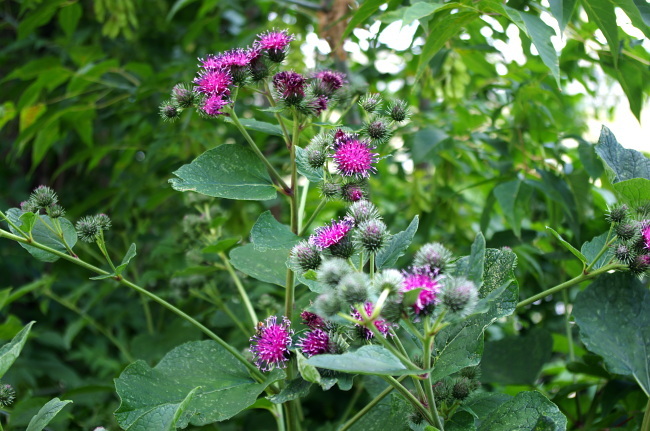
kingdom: Plantae
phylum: Tracheophyta
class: Magnoliopsida
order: Asterales
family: Asteraceae
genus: Arctium
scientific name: Arctium tomentosum
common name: Woolly burdock
